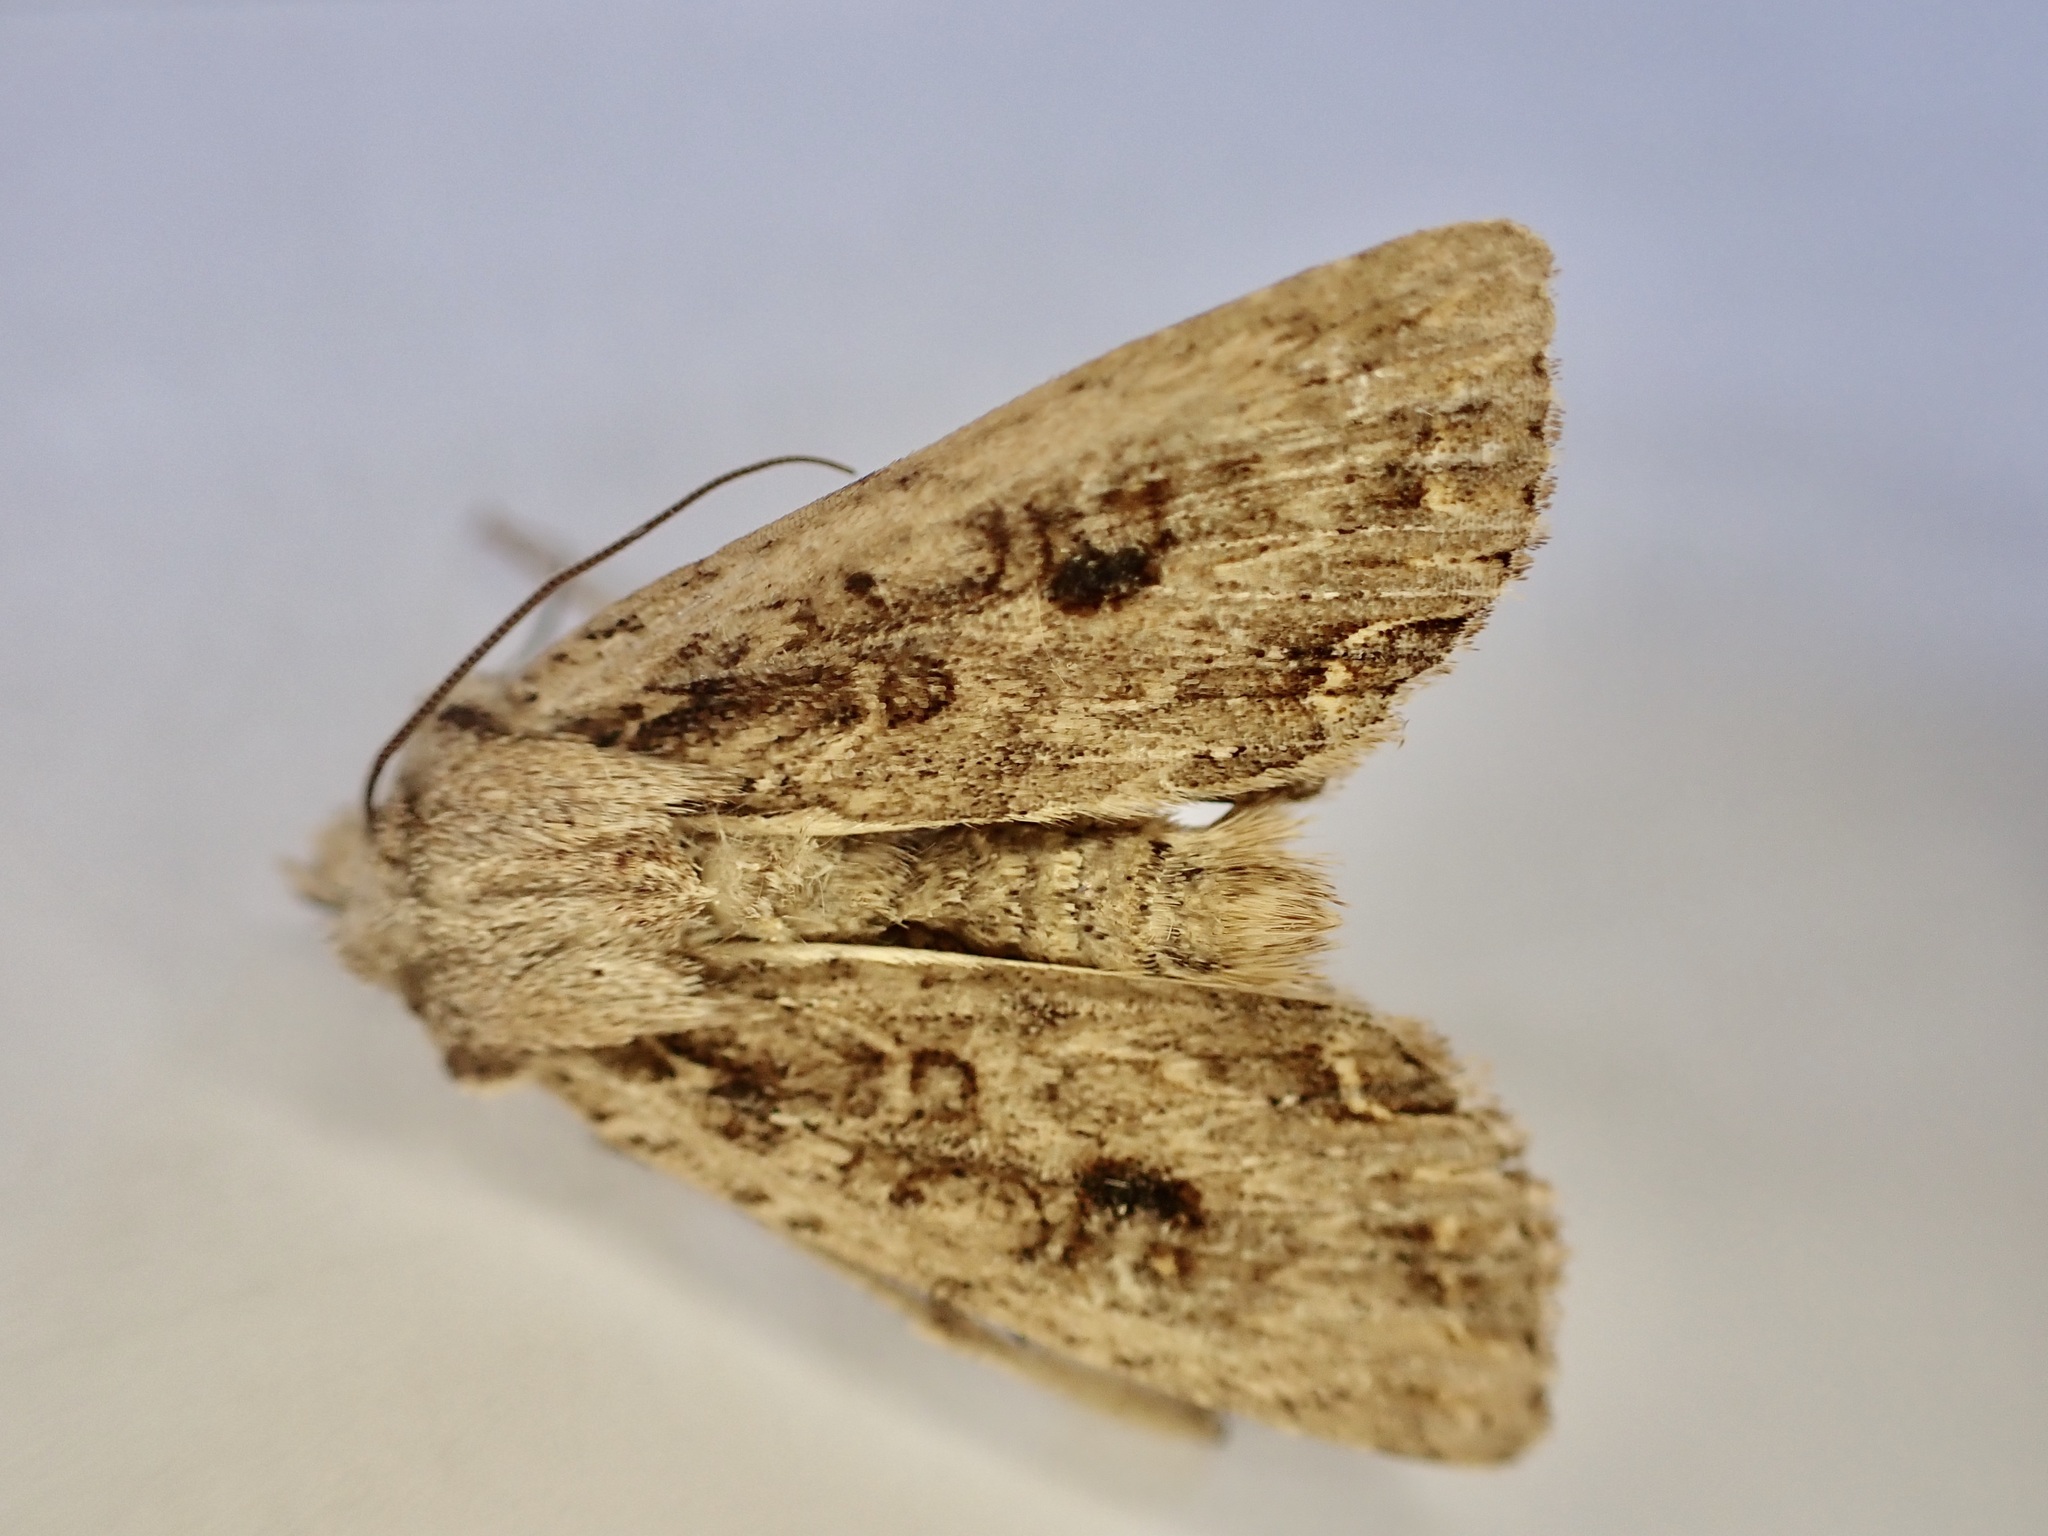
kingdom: Animalia
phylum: Arthropoda
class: Insecta
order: Lepidoptera
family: Noctuidae
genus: Ichneutica
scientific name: Ichneutica
